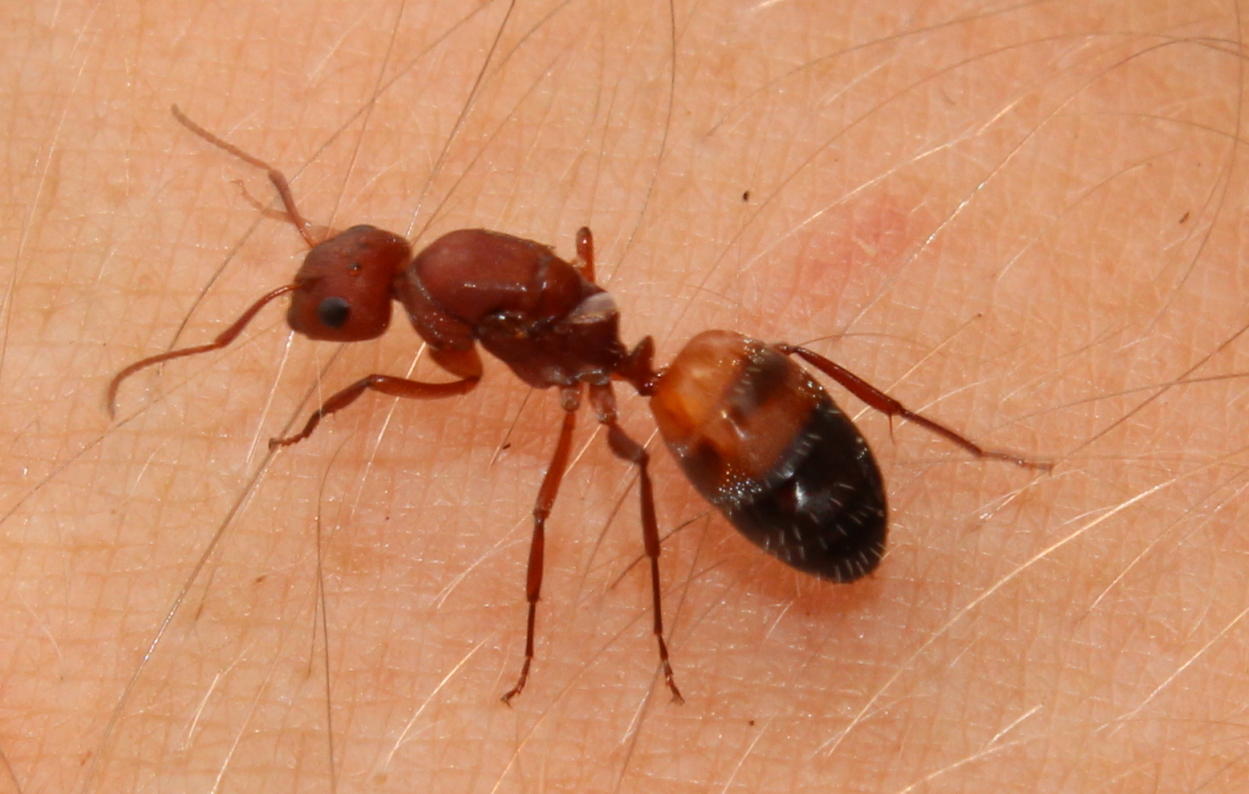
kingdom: Animalia
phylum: Arthropoda
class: Insecta
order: Hymenoptera
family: Formicidae
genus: Camponotus
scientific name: Camponotus robecchii
